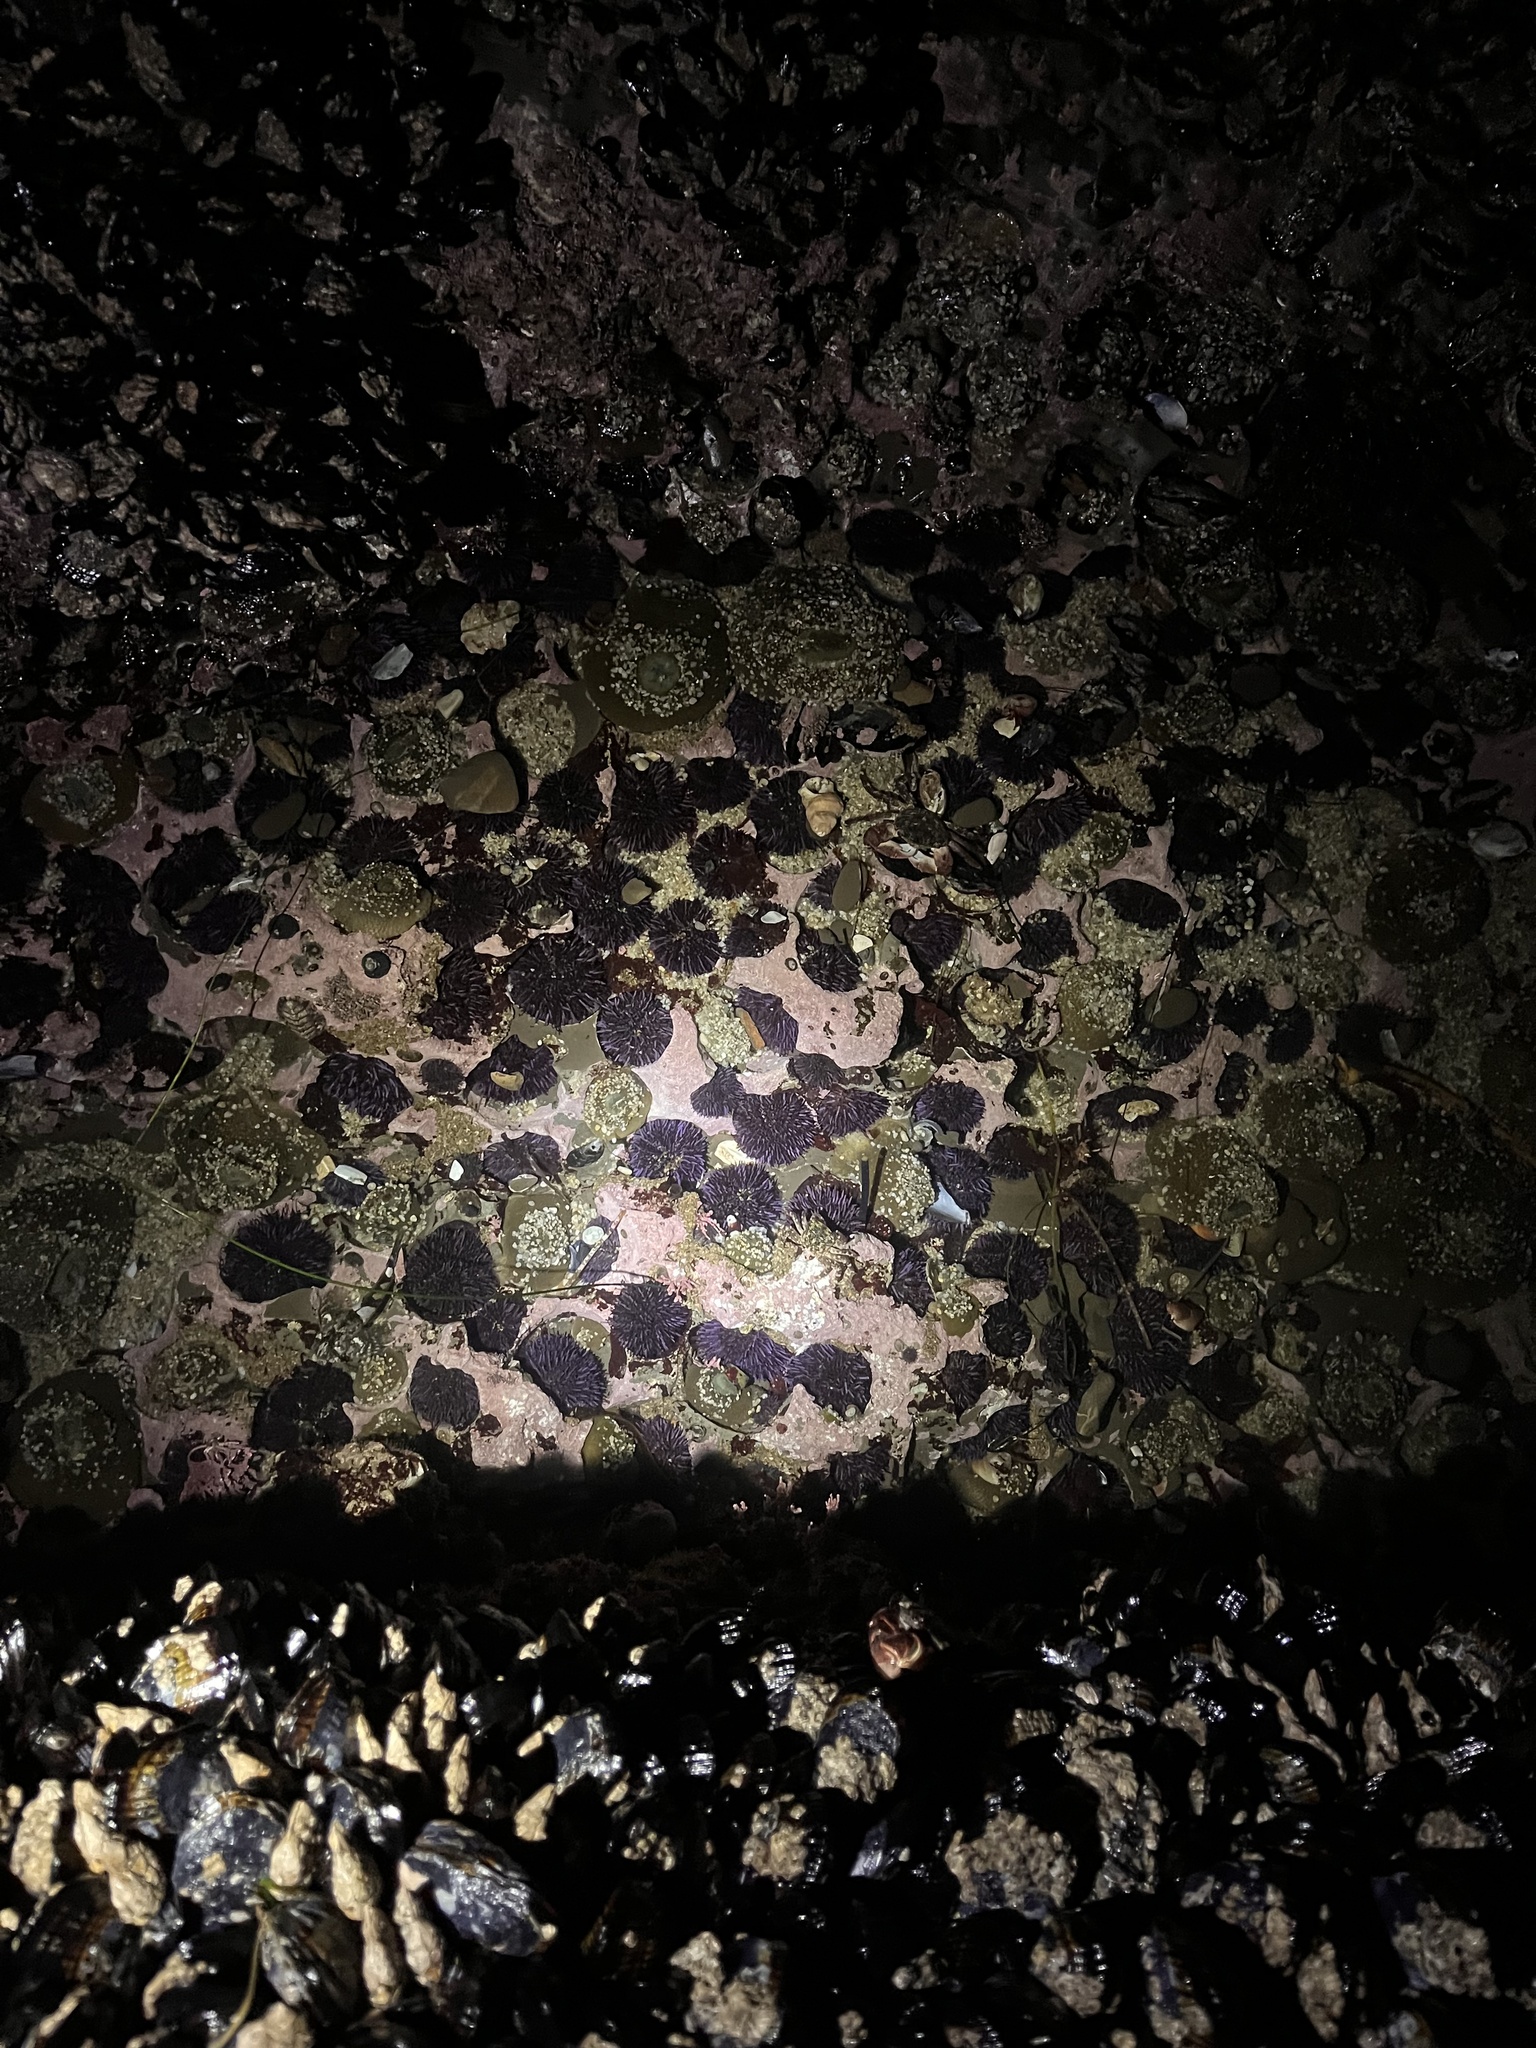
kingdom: Animalia
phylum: Echinodermata
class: Echinoidea
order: Camarodonta
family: Strongylocentrotidae
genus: Strongylocentrotus
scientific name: Strongylocentrotus purpuratus
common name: Purple sea urchin
